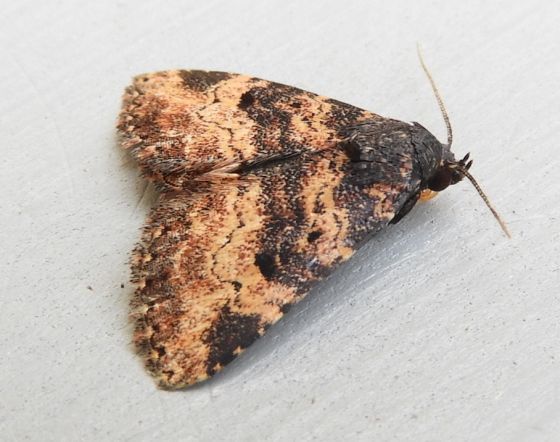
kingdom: Animalia
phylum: Arthropoda
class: Insecta
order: Lepidoptera
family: Erebidae
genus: Metalectra
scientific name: Metalectra edilis
